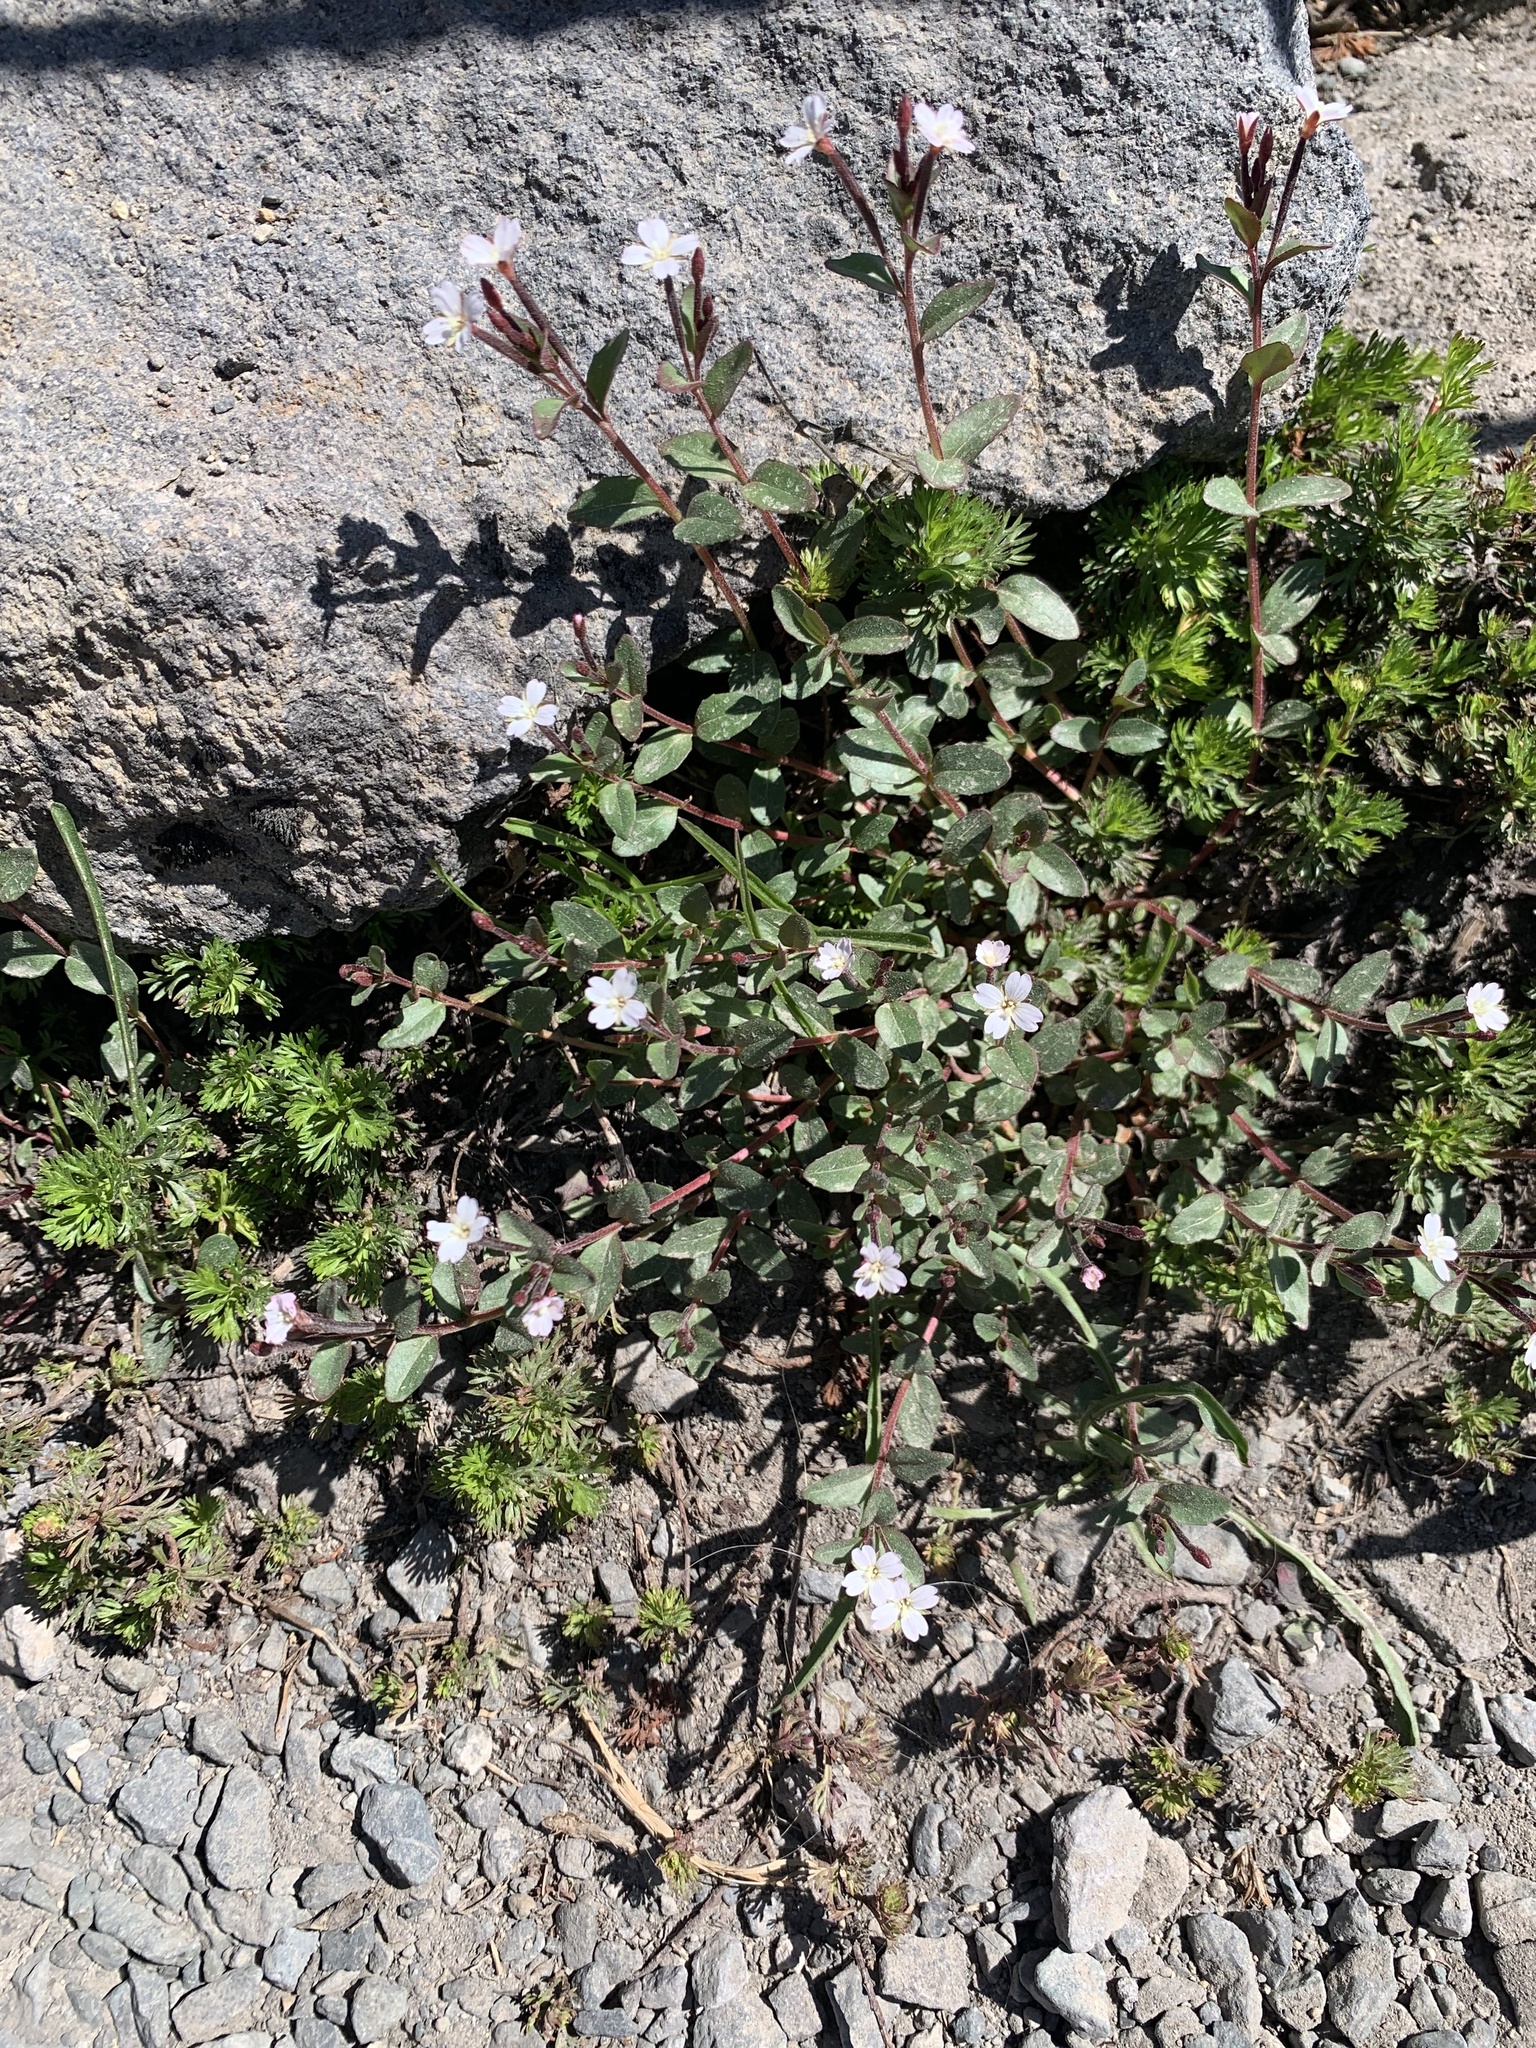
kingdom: Plantae
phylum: Tracheophyta
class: Magnoliopsida
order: Myrtales
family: Onagraceae
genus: Epilobium
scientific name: Epilobium minutum
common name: Chaparral willowherb
